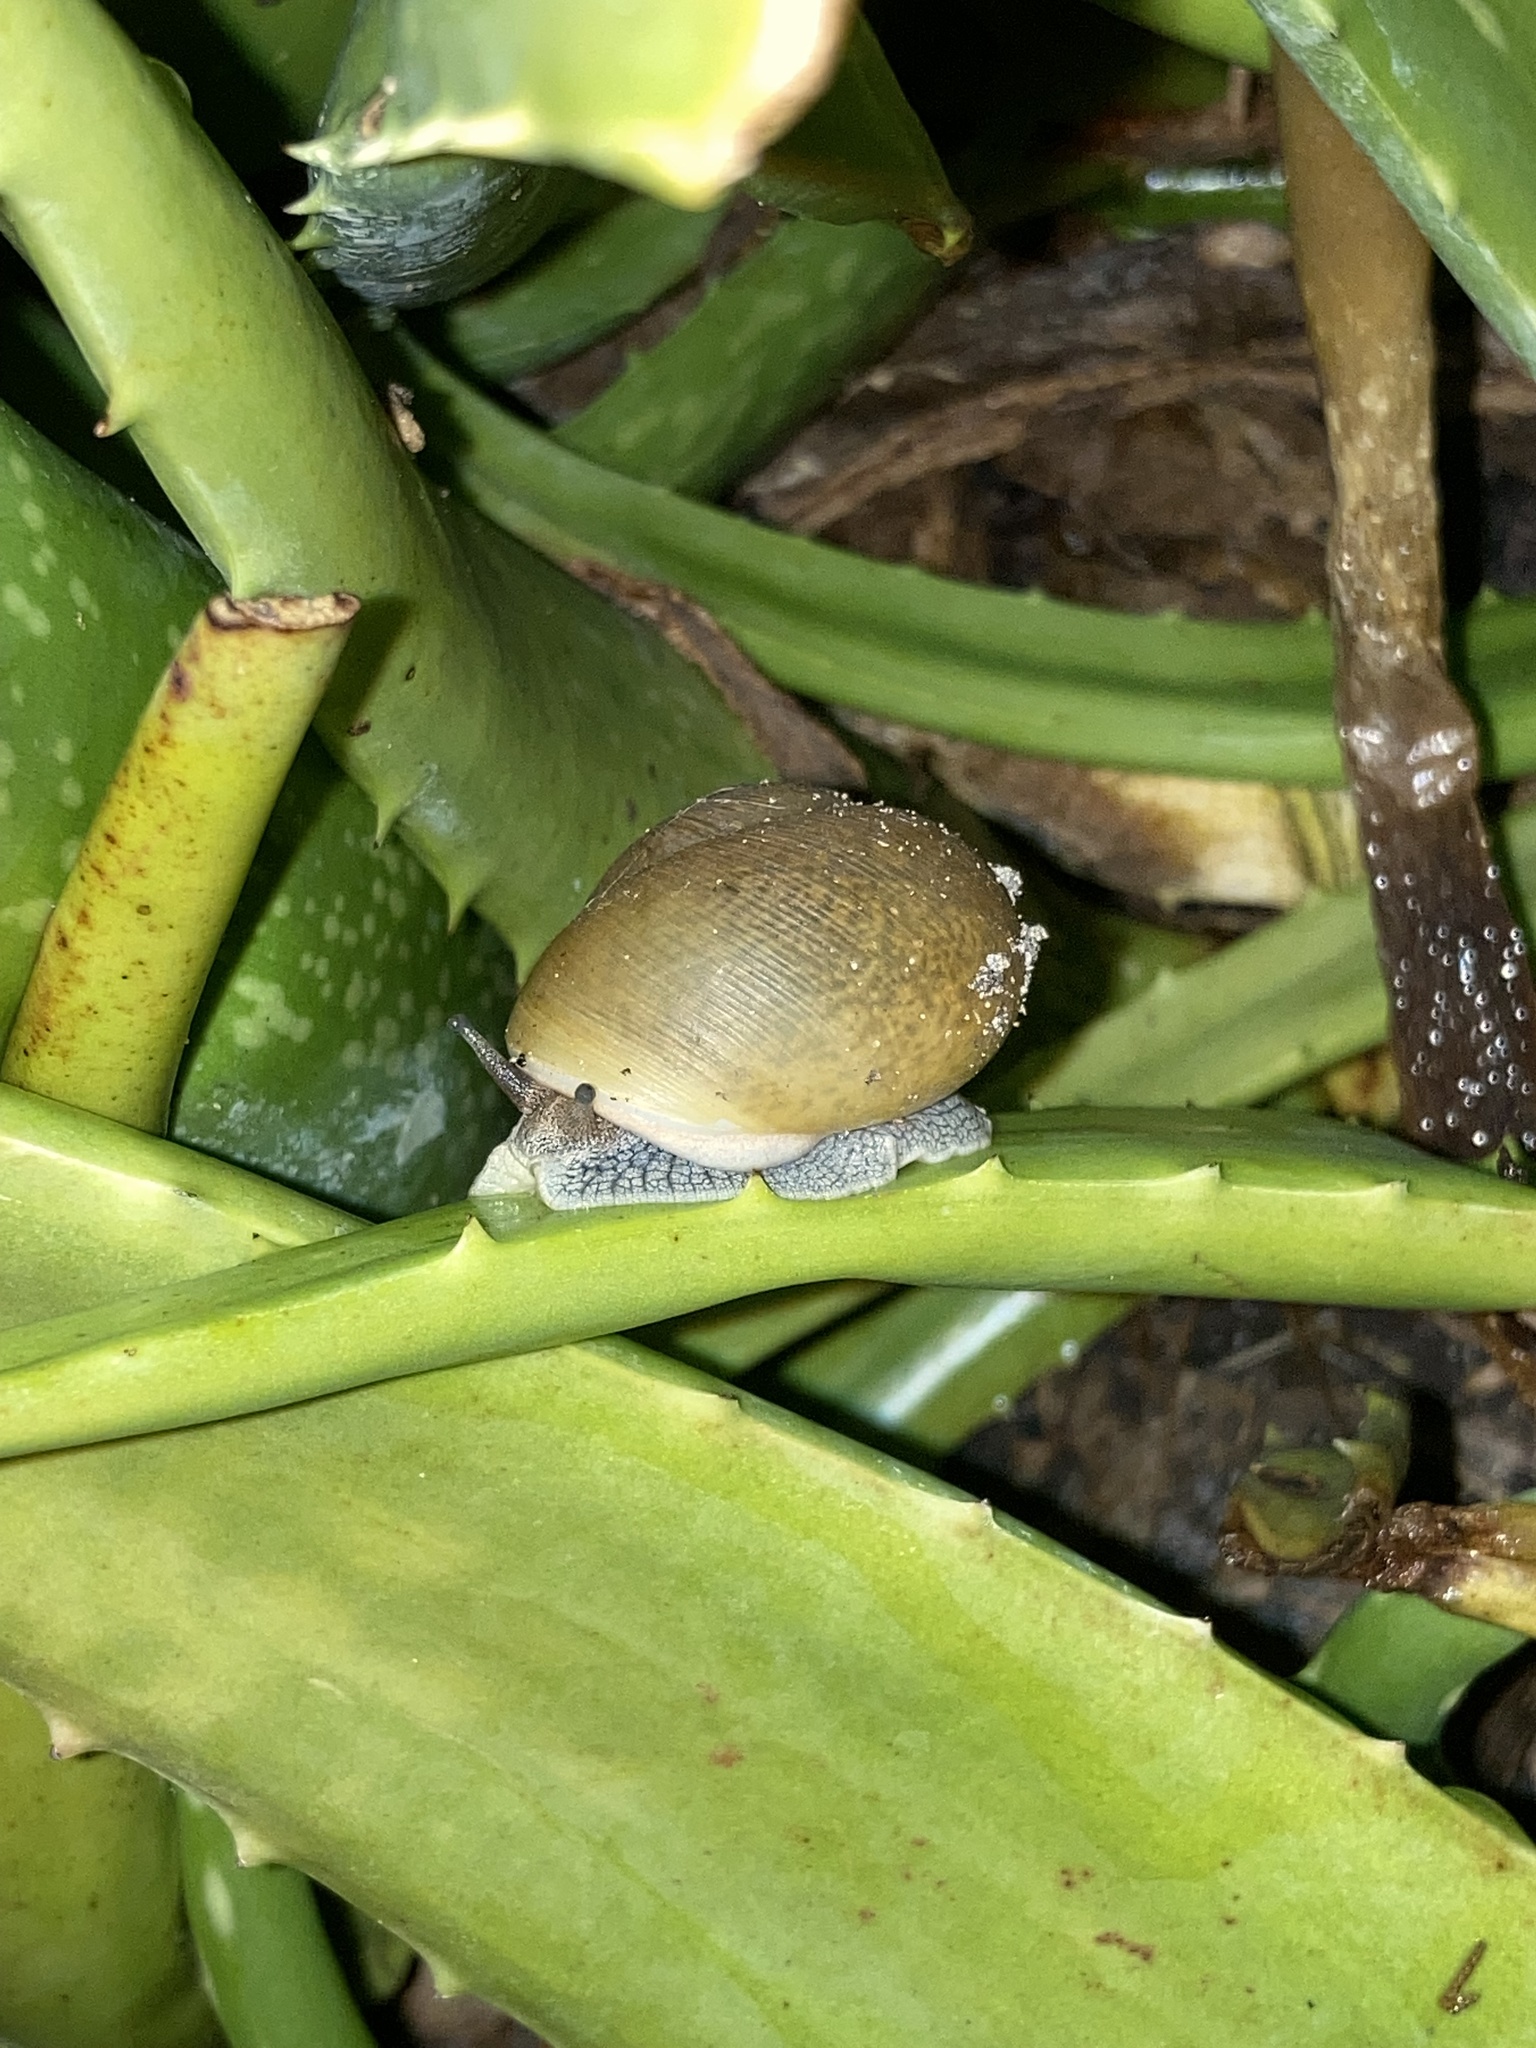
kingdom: Animalia
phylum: Mollusca
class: Gastropoda
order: Stylommatophora
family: Zachrysiidae
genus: Zachrysia
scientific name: Zachrysia provisoria
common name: Garden zachrysia
